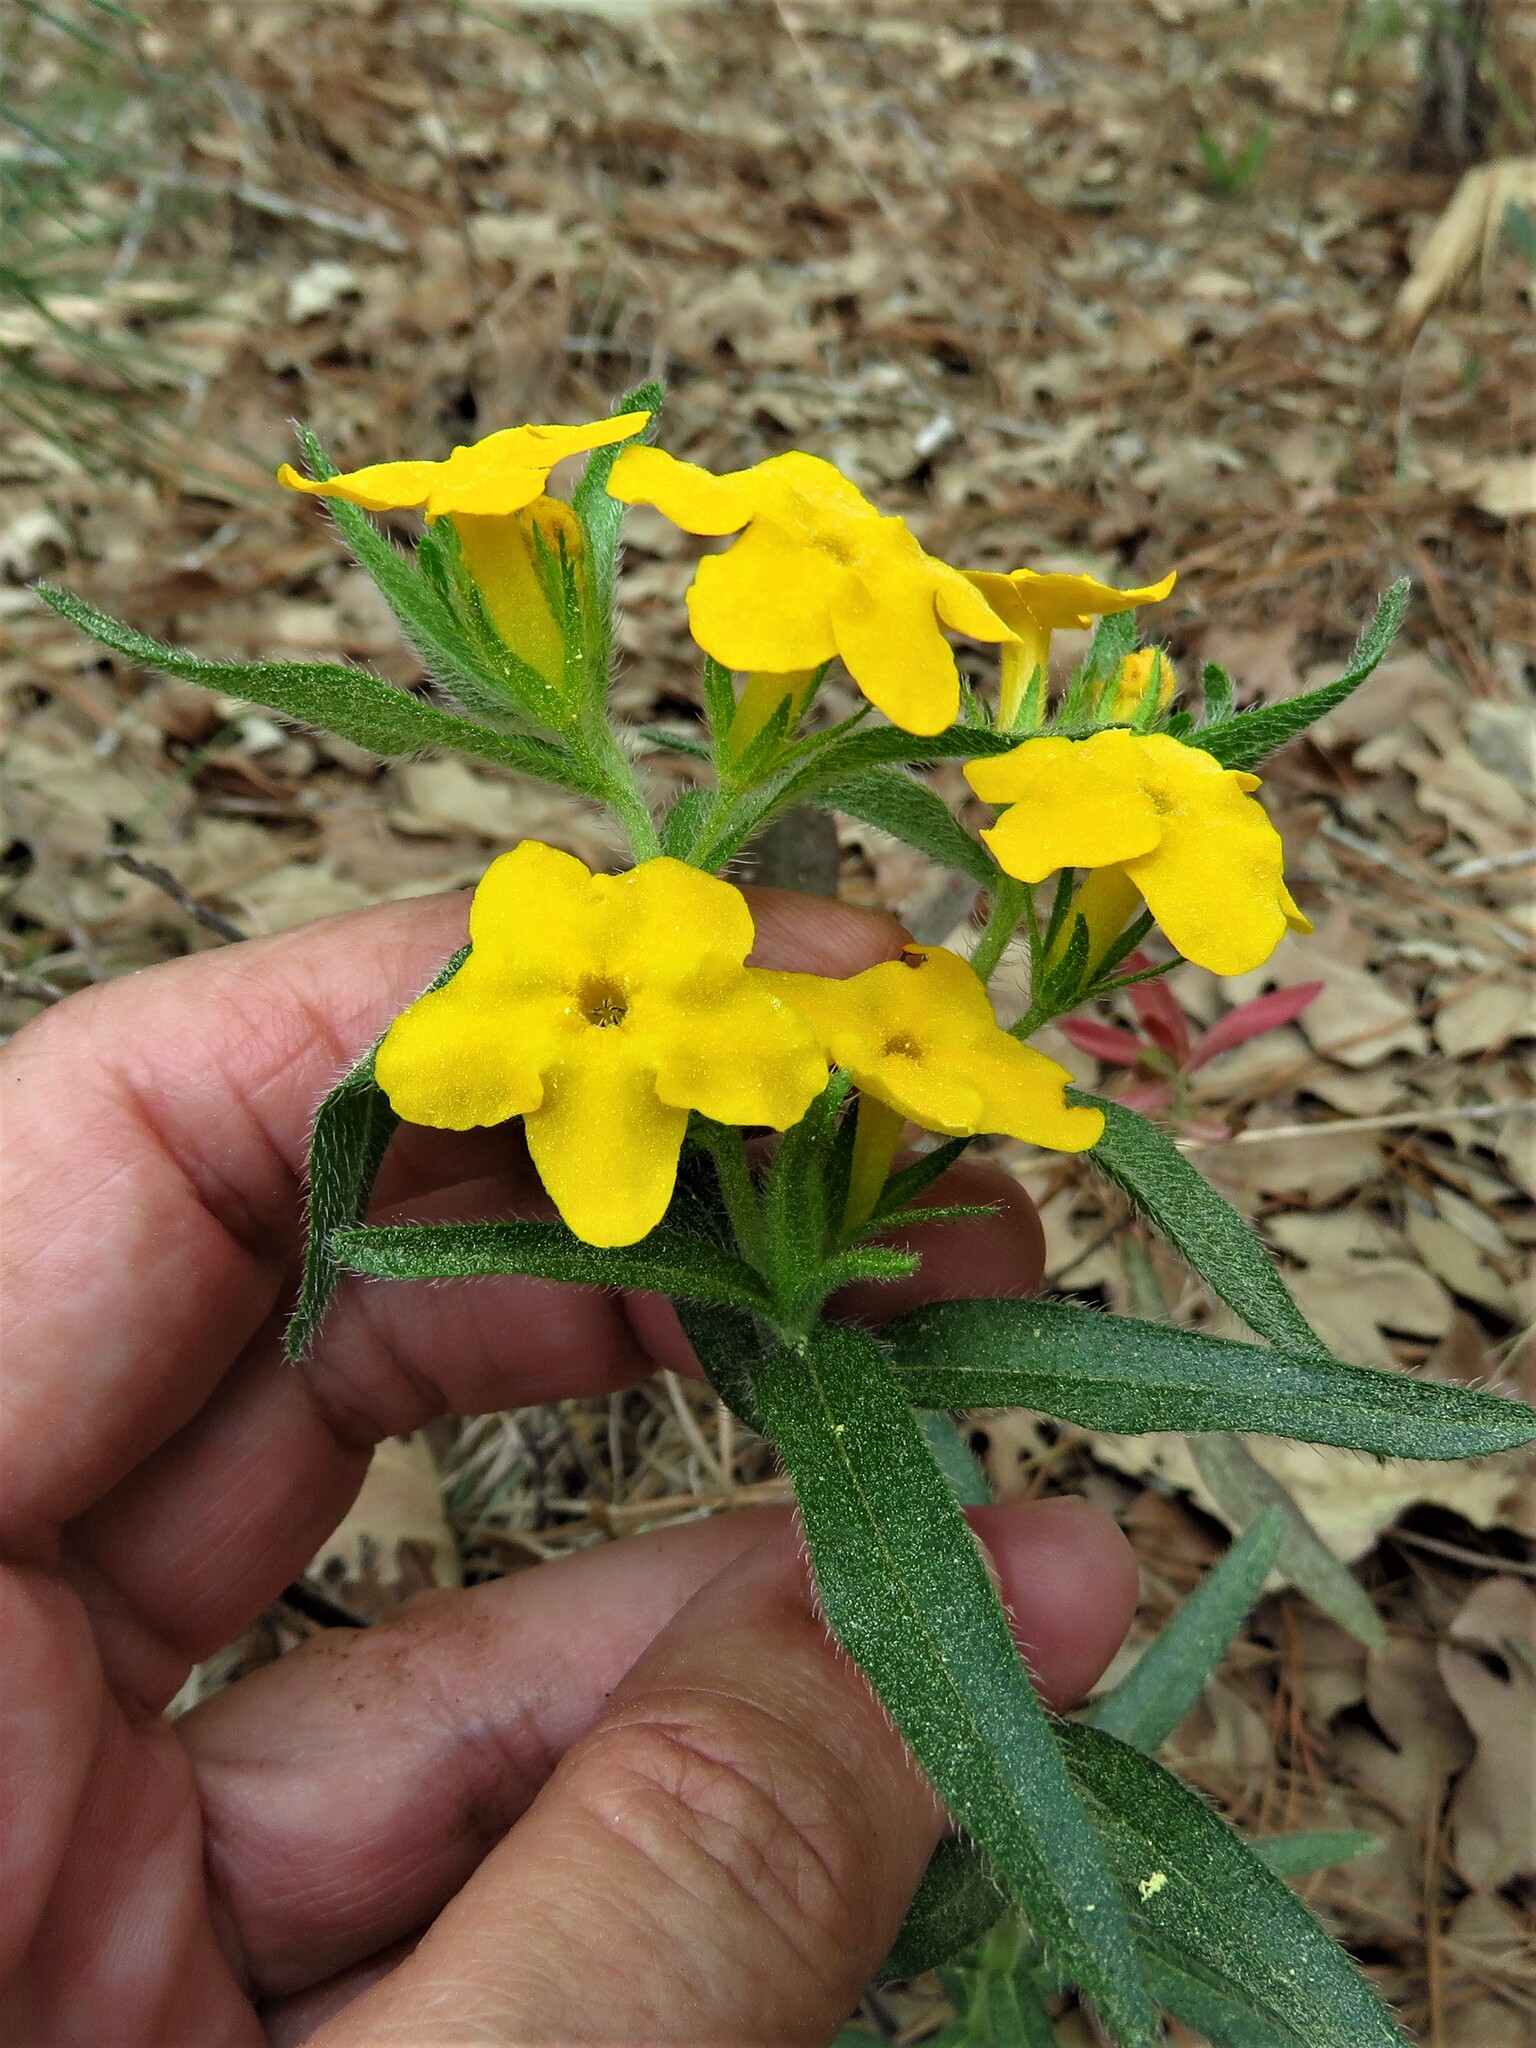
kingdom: Plantae
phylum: Tracheophyta
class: Magnoliopsida
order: Boraginales
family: Boraginaceae
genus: Lithospermum
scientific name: Lithospermum caroliniense
